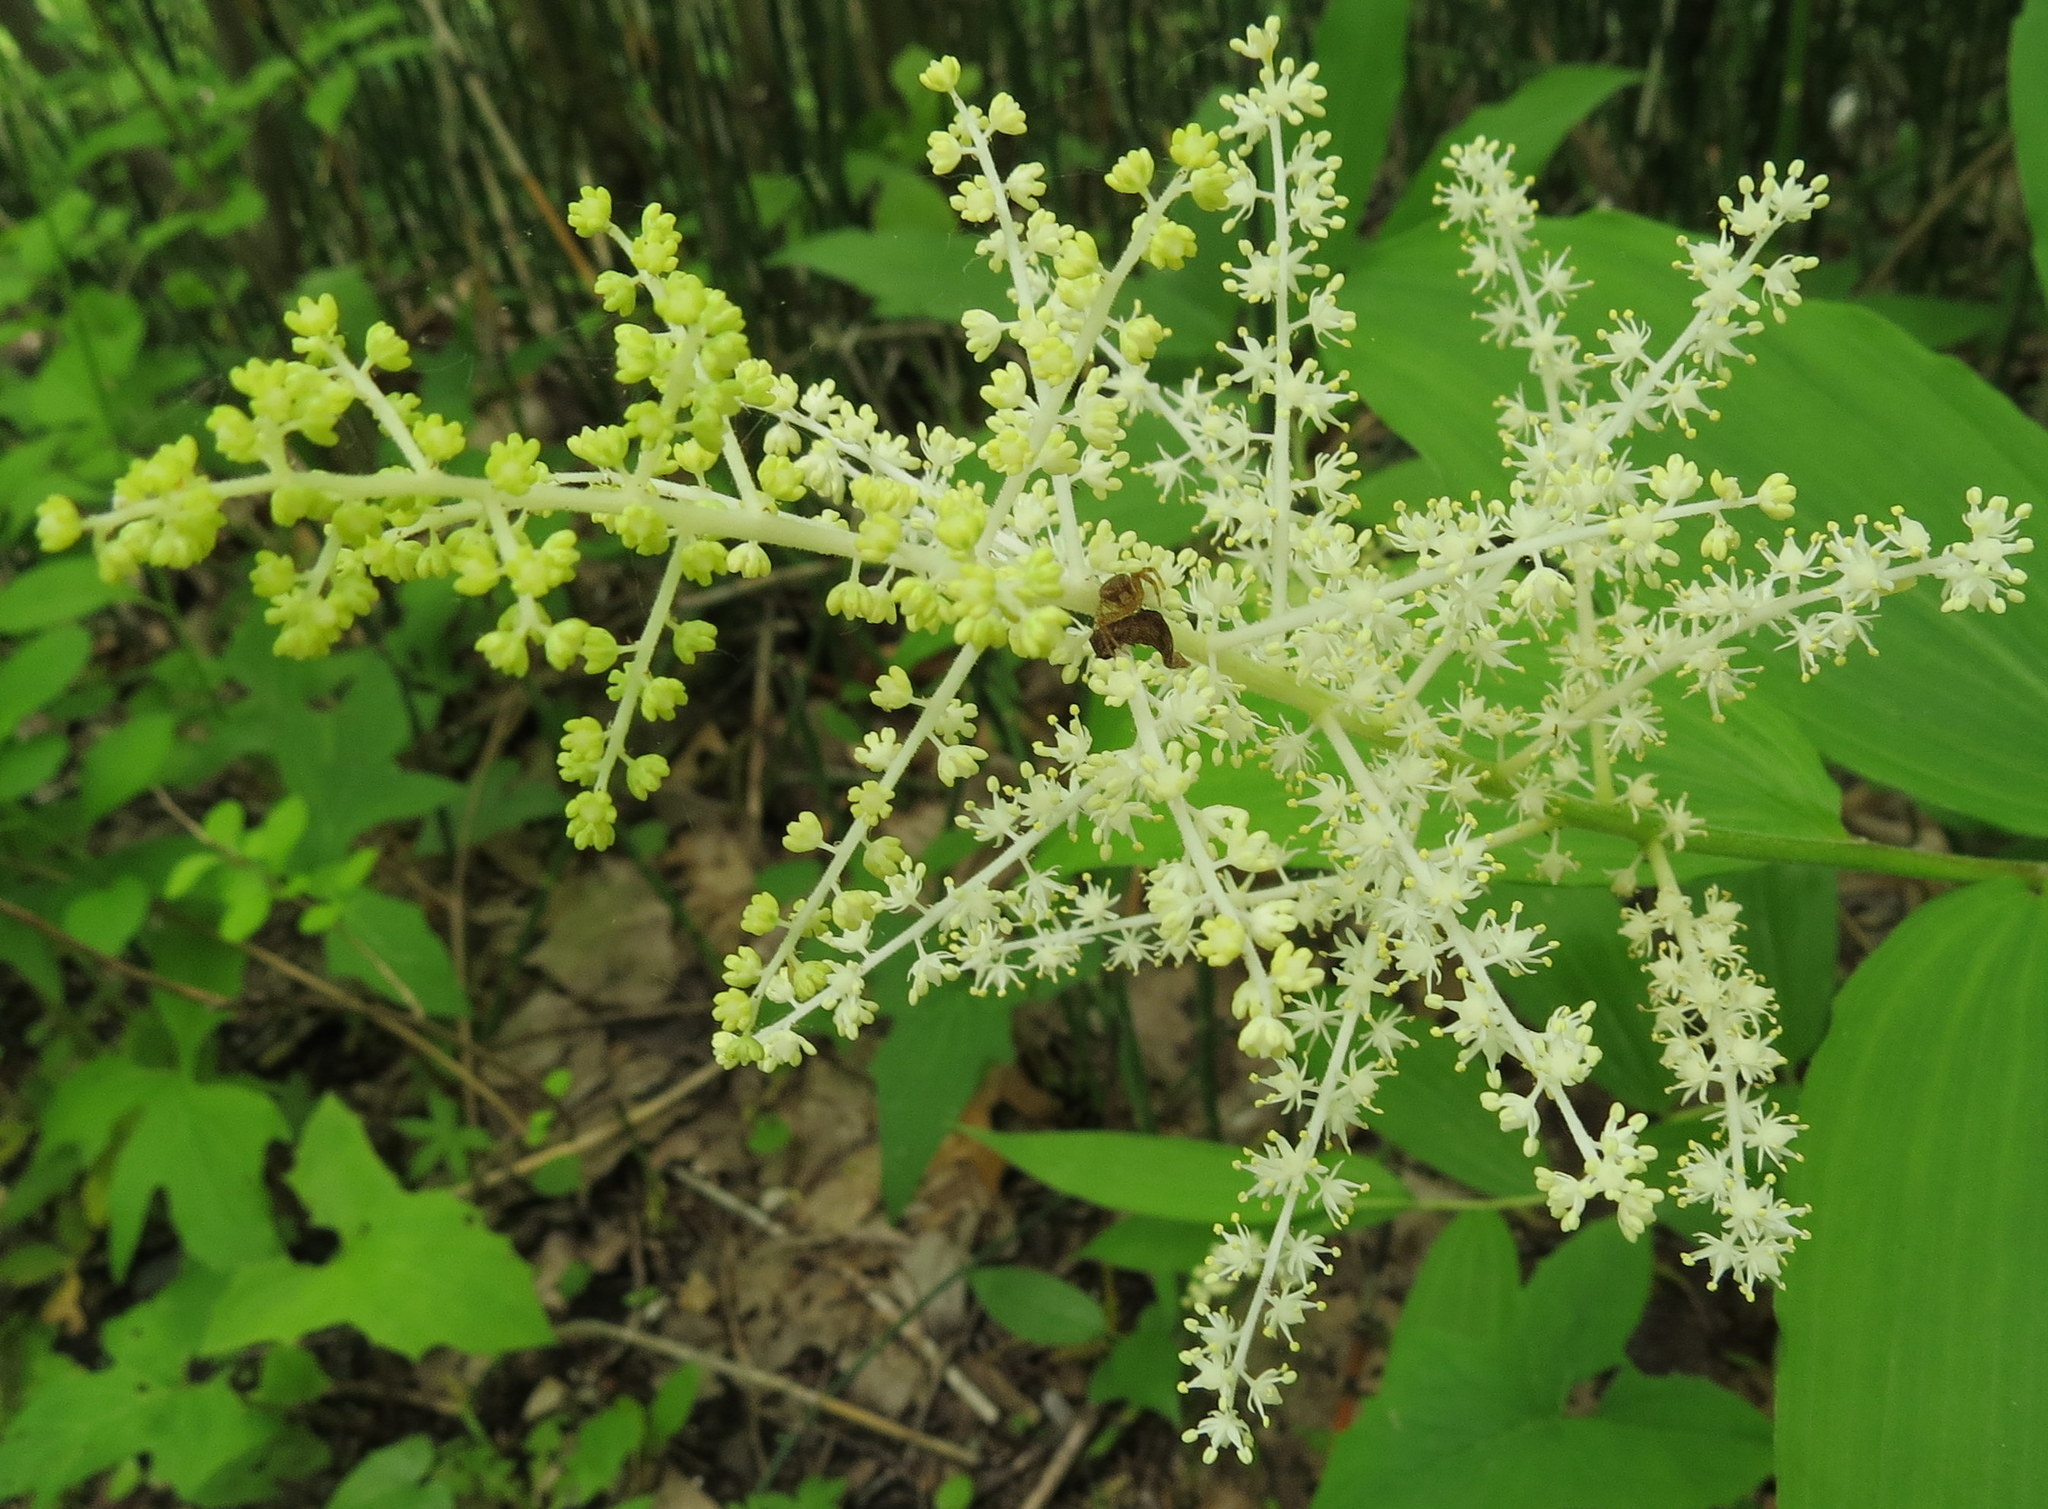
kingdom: Plantae
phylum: Tracheophyta
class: Liliopsida
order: Asparagales
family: Asparagaceae
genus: Maianthemum
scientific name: Maianthemum racemosum
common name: False spikenard
